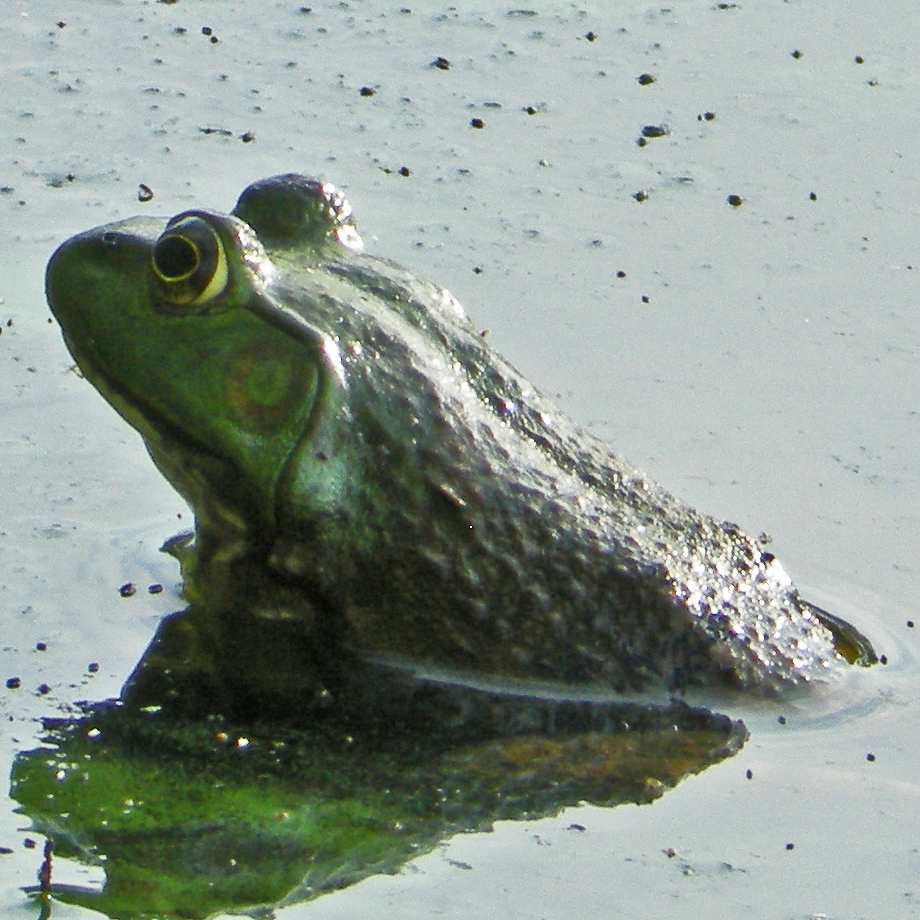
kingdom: Animalia
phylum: Chordata
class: Amphibia
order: Anura
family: Ranidae
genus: Lithobates
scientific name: Lithobates catesbeianus
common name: American bullfrog
